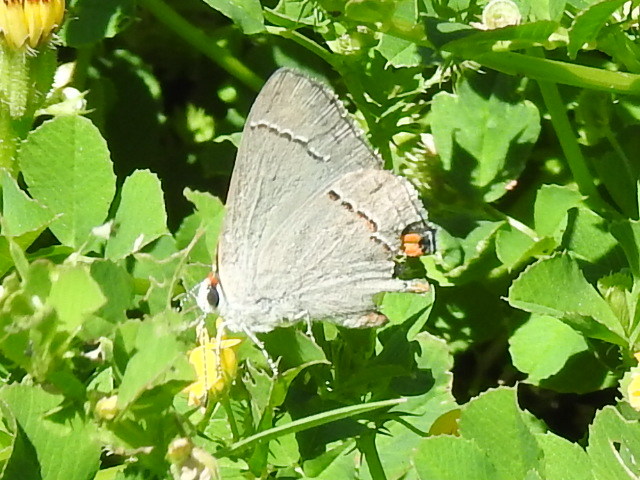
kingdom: Animalia
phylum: Arthropoda
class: Insecta
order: Lepidoptera
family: Lycaenidae
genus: Strymon
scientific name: Strymon melinus
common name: Gray hairstreak
